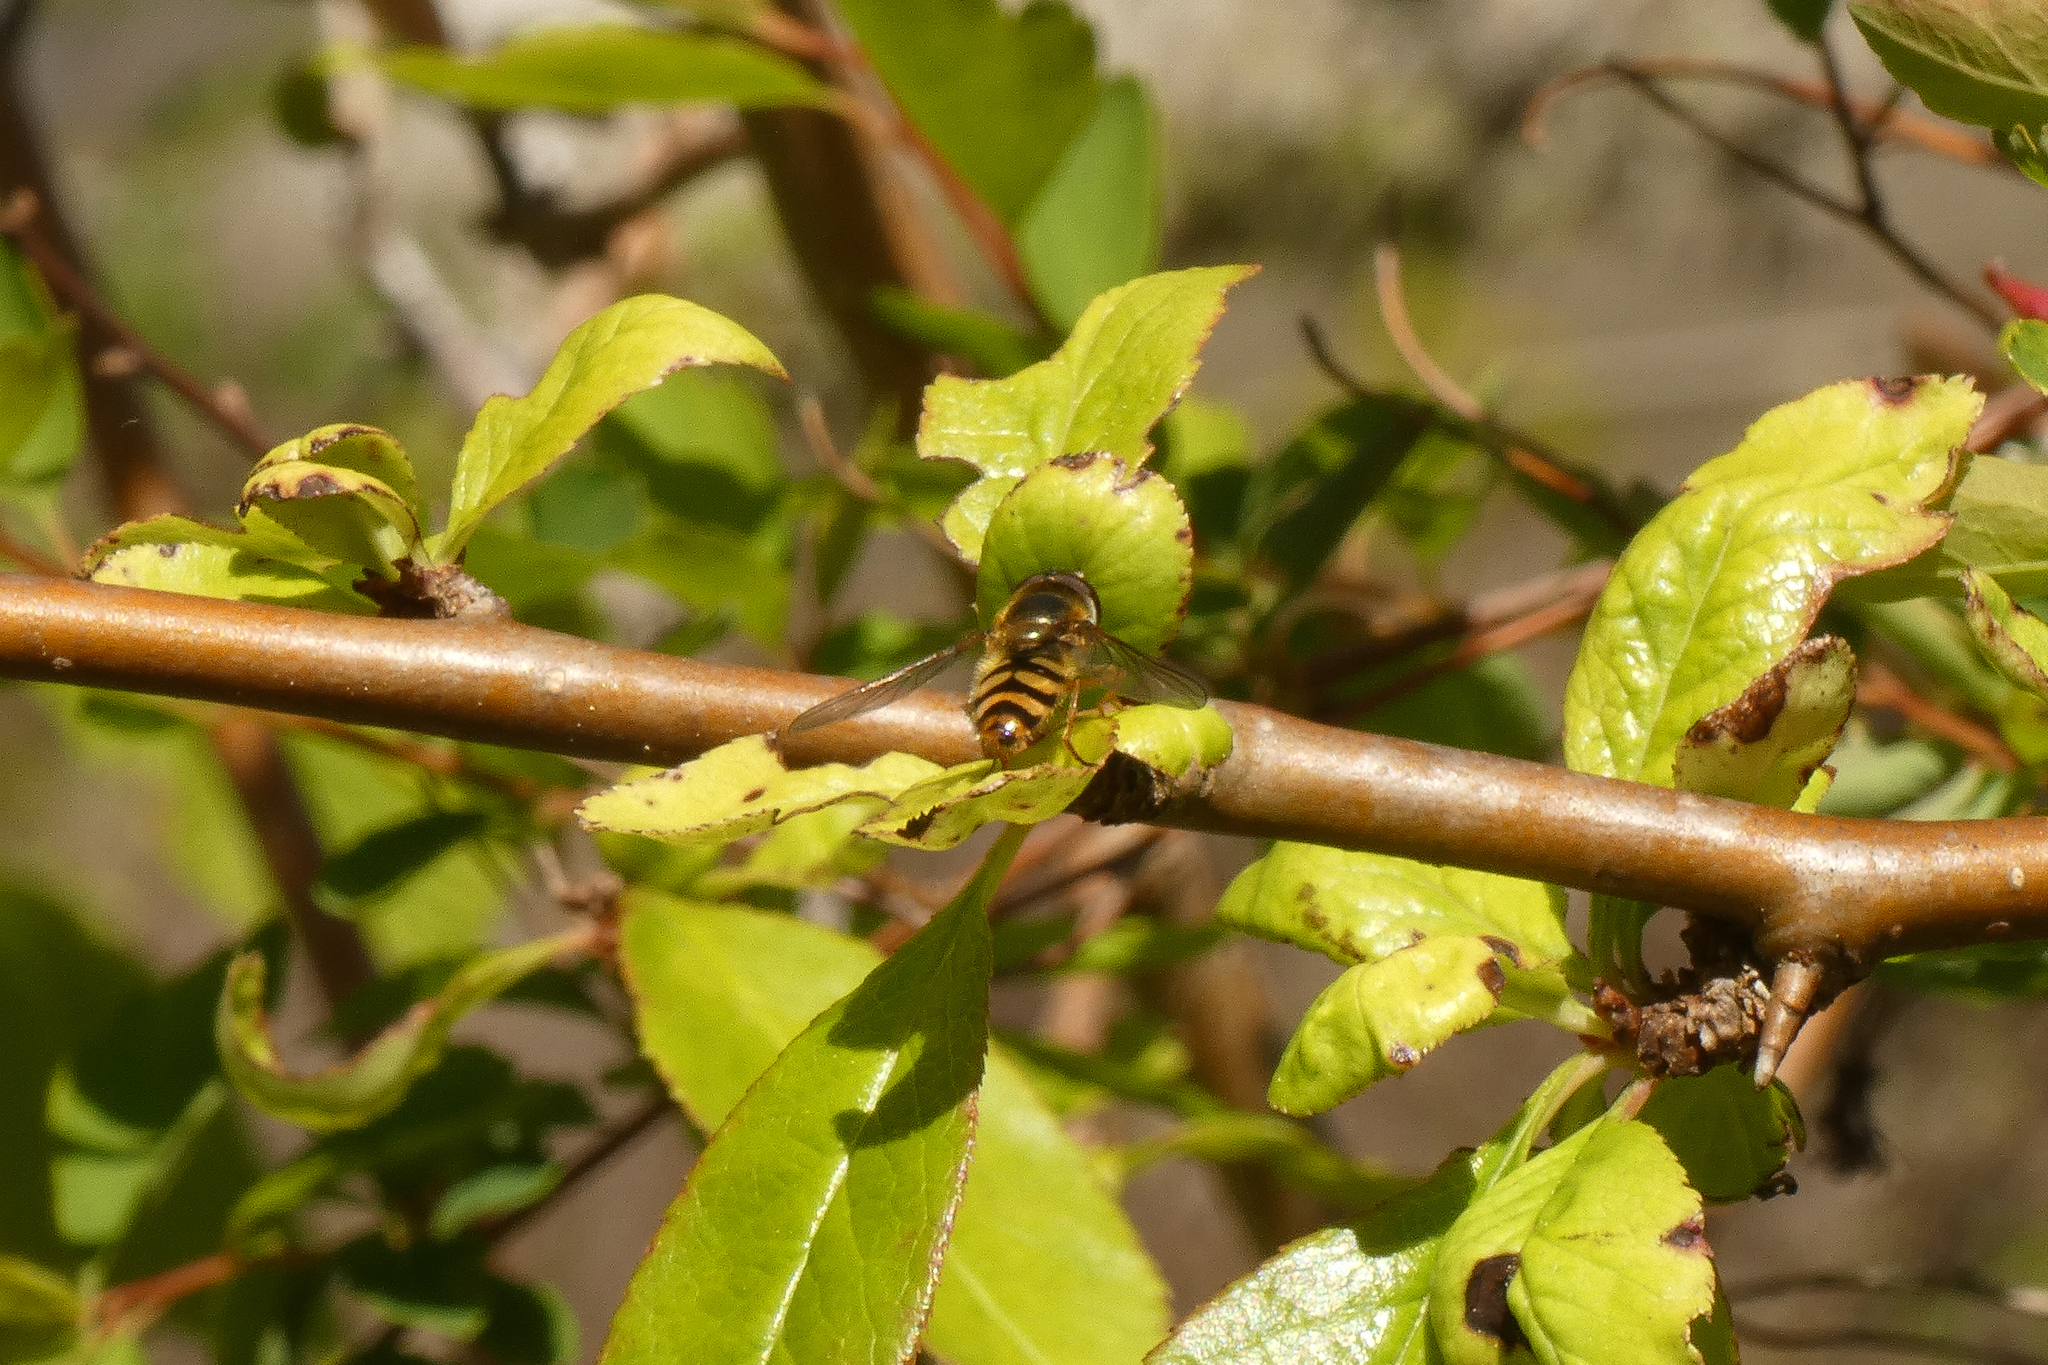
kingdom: Animalia
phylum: Arthropoda
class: Insecta
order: Diptera
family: Syrphidae
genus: Syrphus
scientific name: Syrphus
